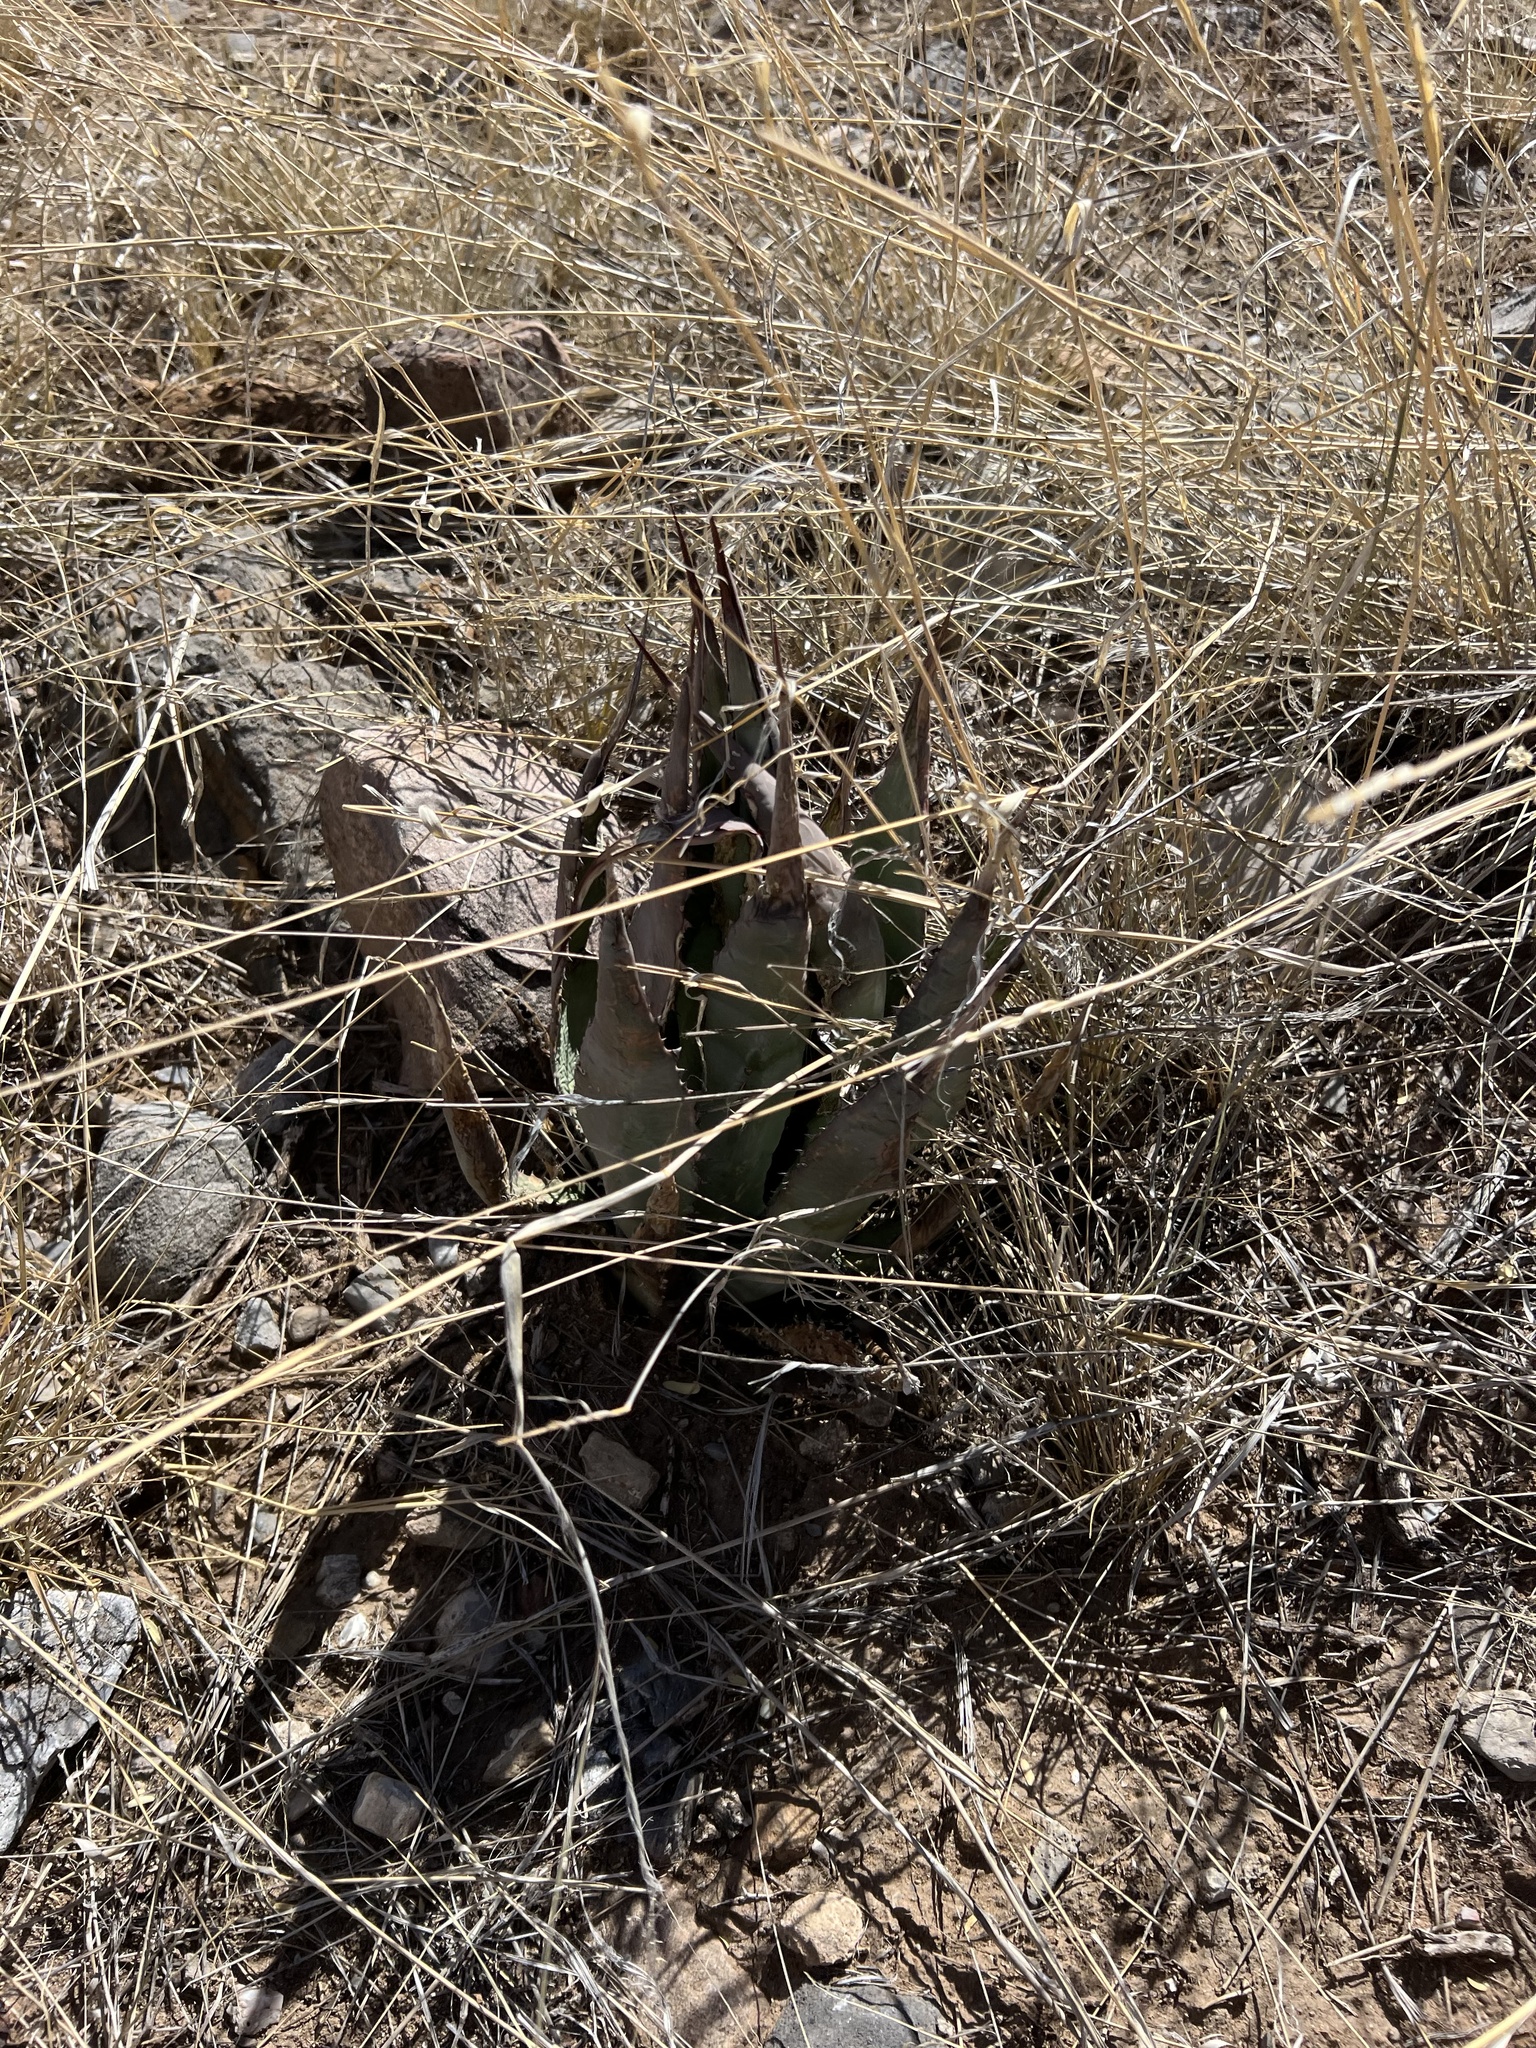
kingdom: Plantae
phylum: Tracheophyta
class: Liliopsida
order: Asparagales
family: Asparagaceae
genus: Agave
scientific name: Agave palmeri
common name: Palmer agave
